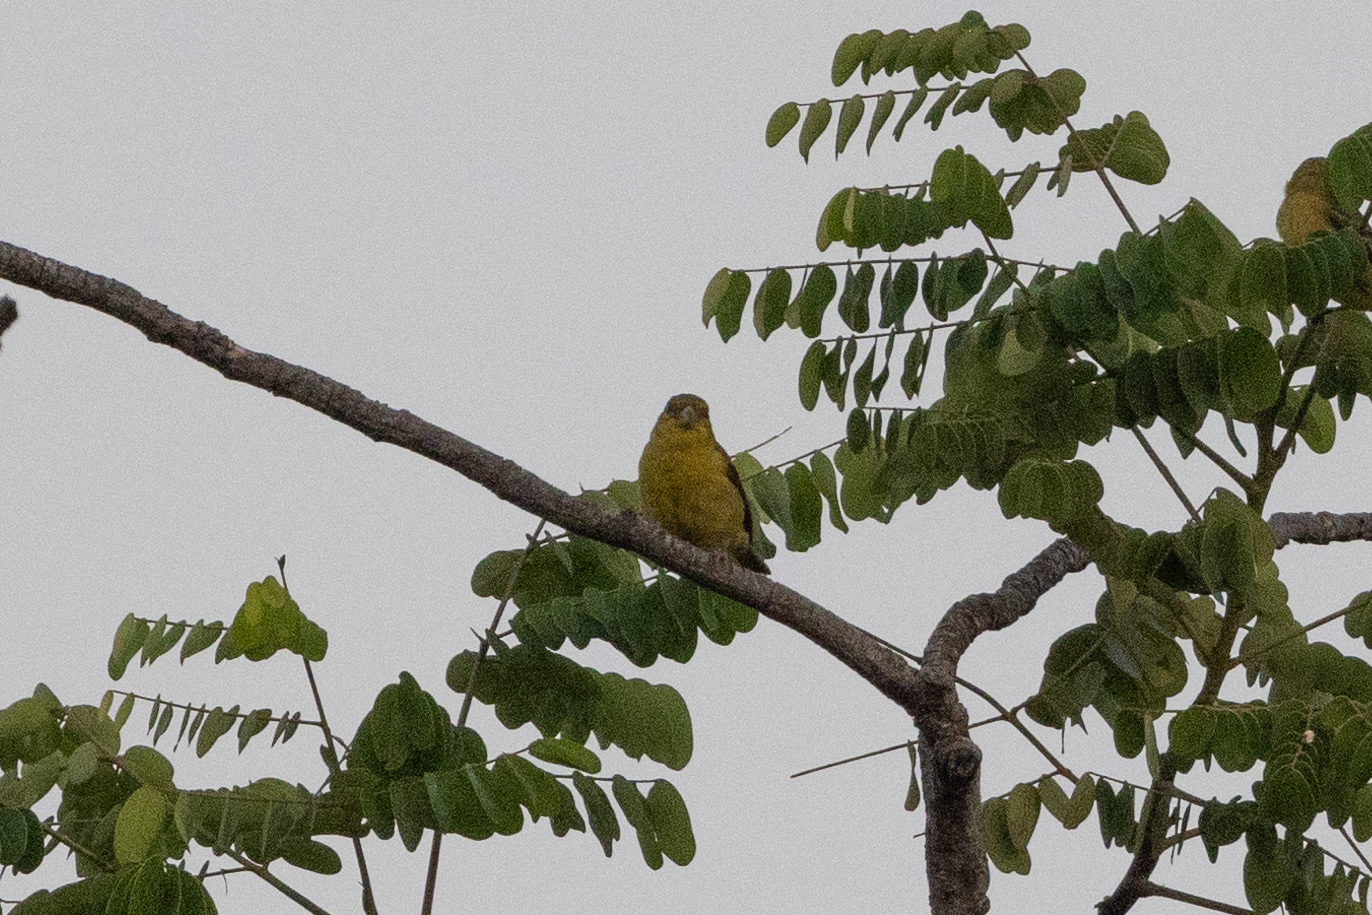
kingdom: Animalia
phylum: Chordata
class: Aves
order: Passeriformes
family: Fringillidae
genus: Spinus
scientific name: Spinus psaltria
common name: Lesser goldfinch
